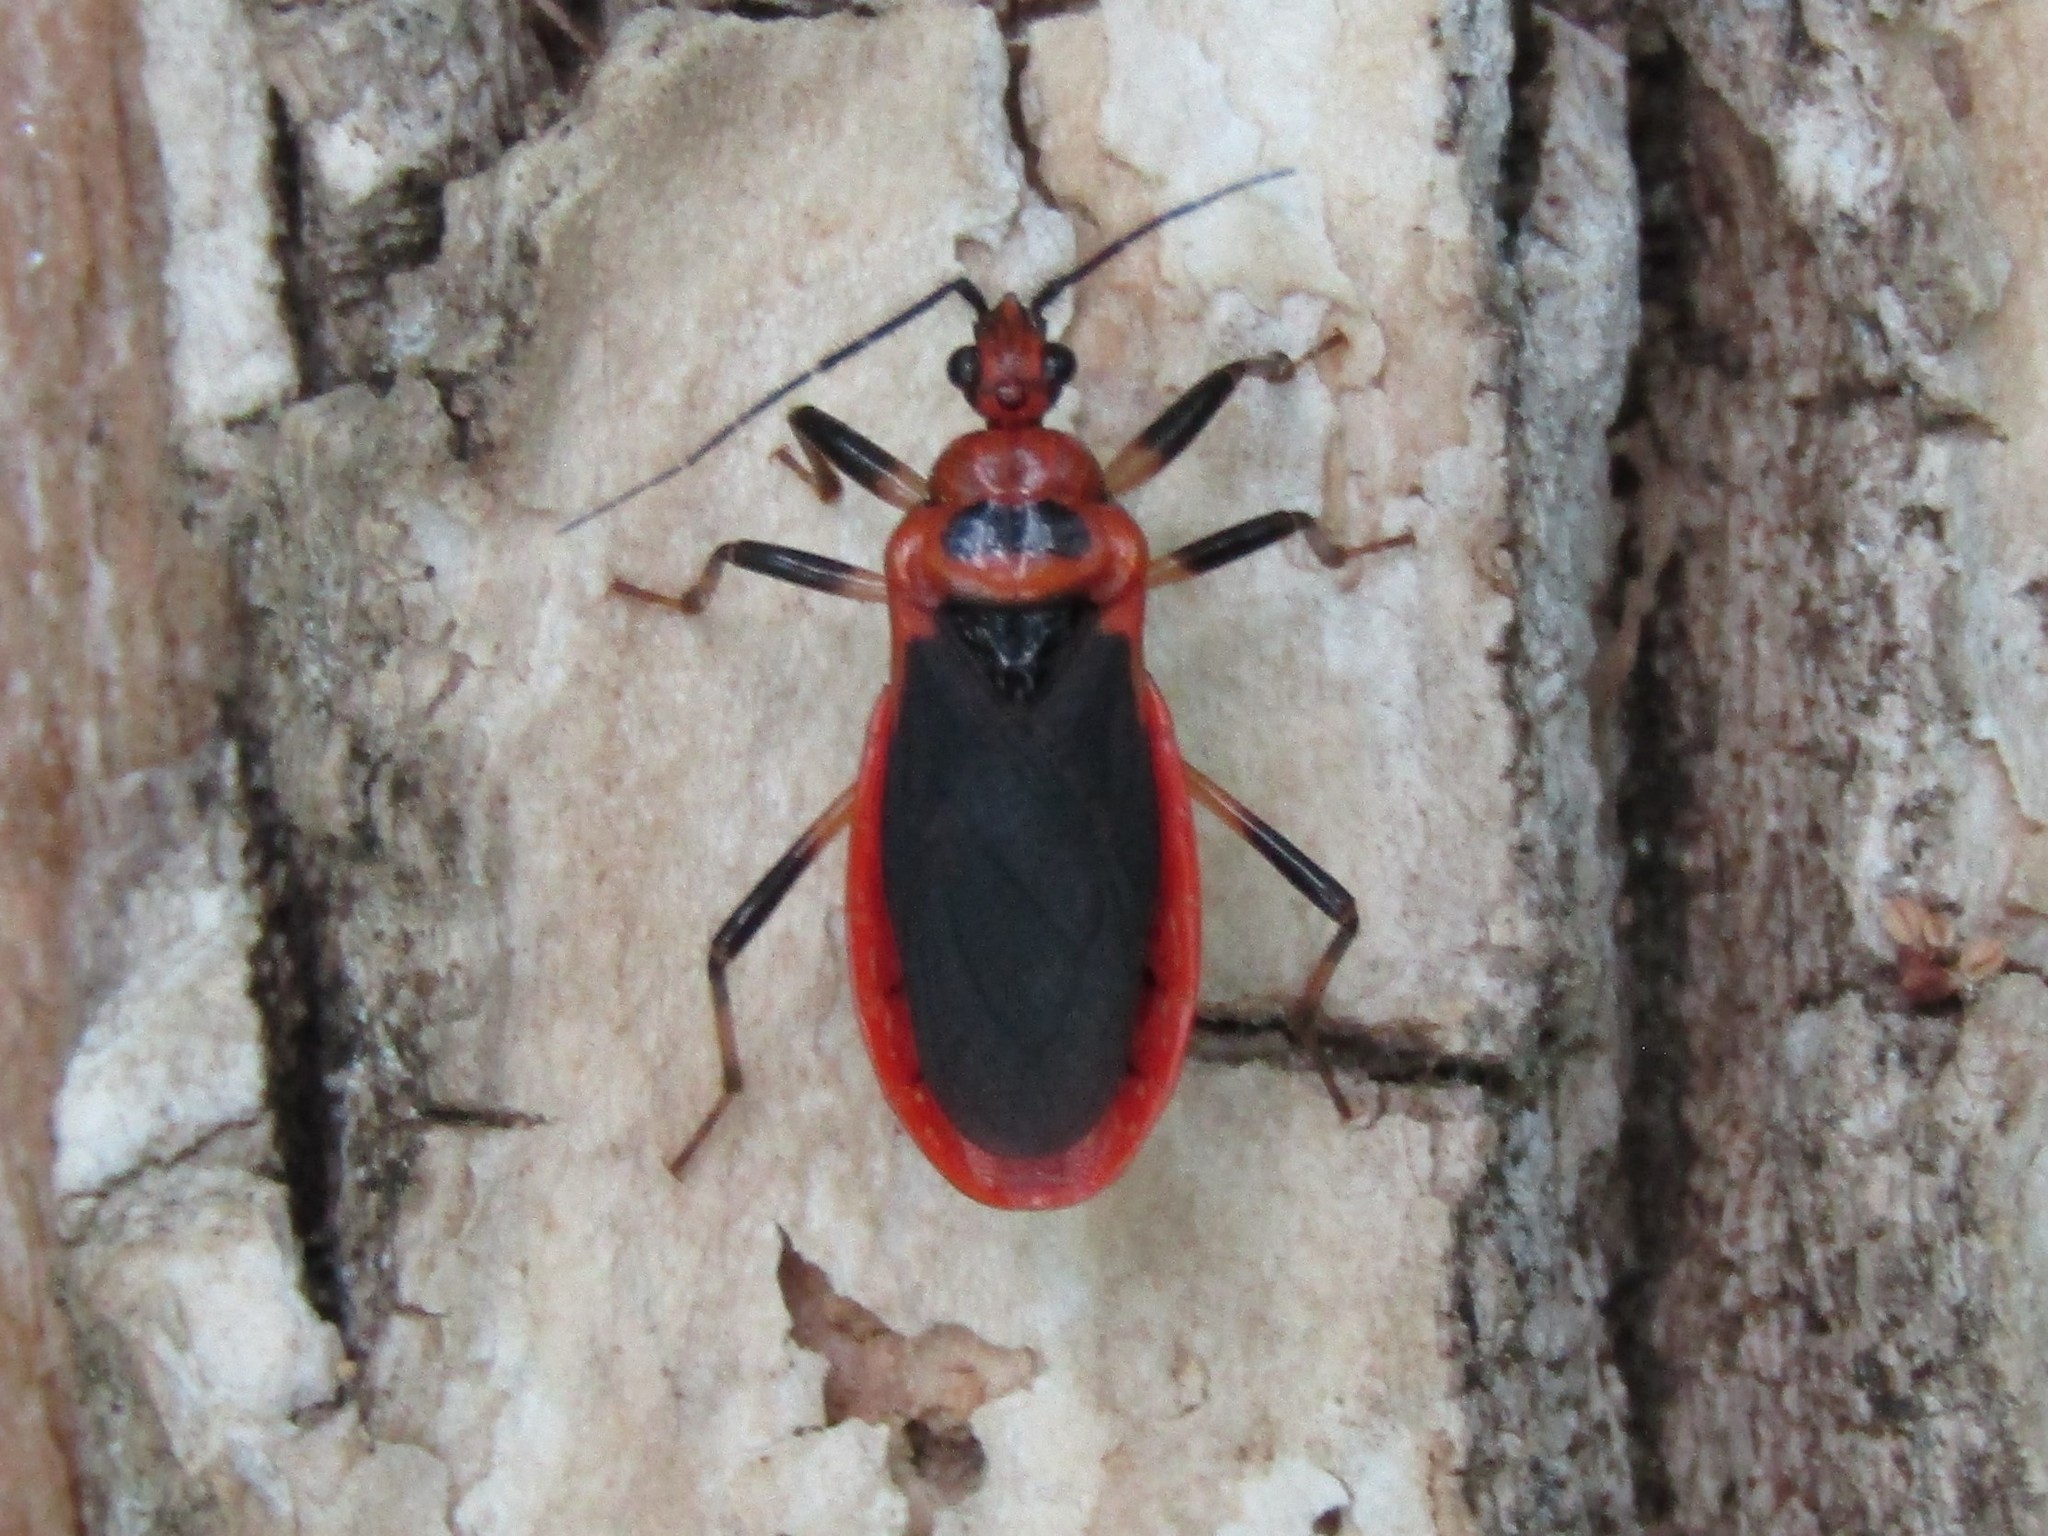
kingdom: Animalia
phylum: Arthropoda
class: Insecta
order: Hemiptera
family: Reduviidae
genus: Rhiginia
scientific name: Rhiginia cruciata
